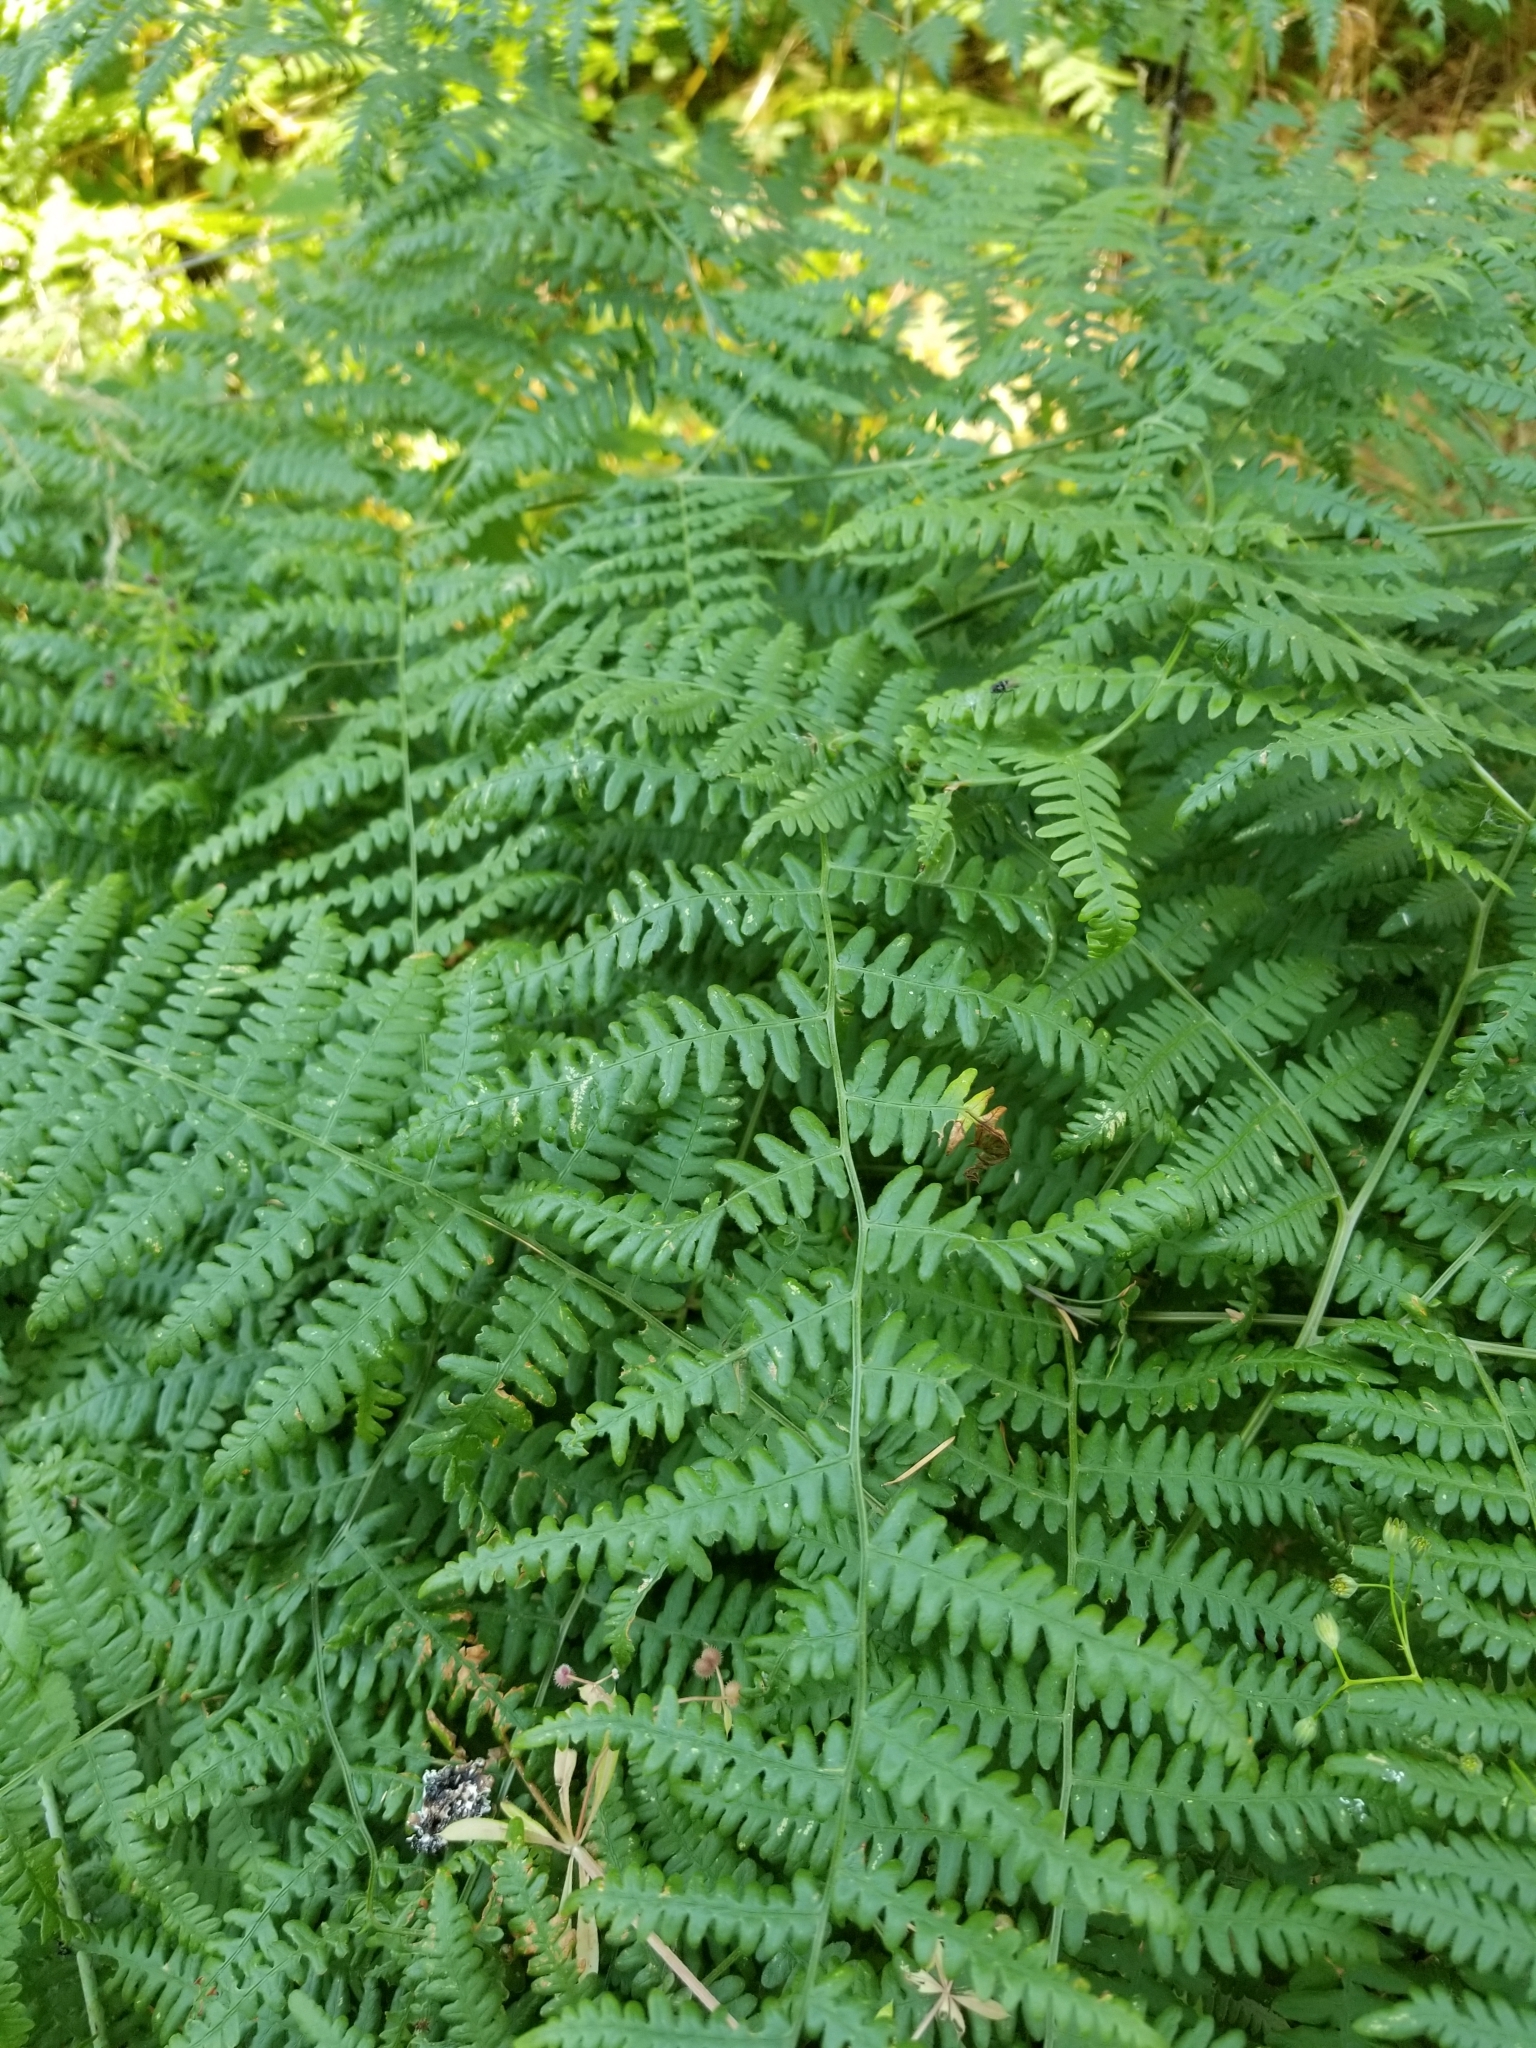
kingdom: Plantae
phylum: Tracheophyta
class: Polypodiopsida
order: Polypodiales
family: Dennstaedtiaceae
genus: Pteridium
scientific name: Pteridium aquilinum
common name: Bracken
